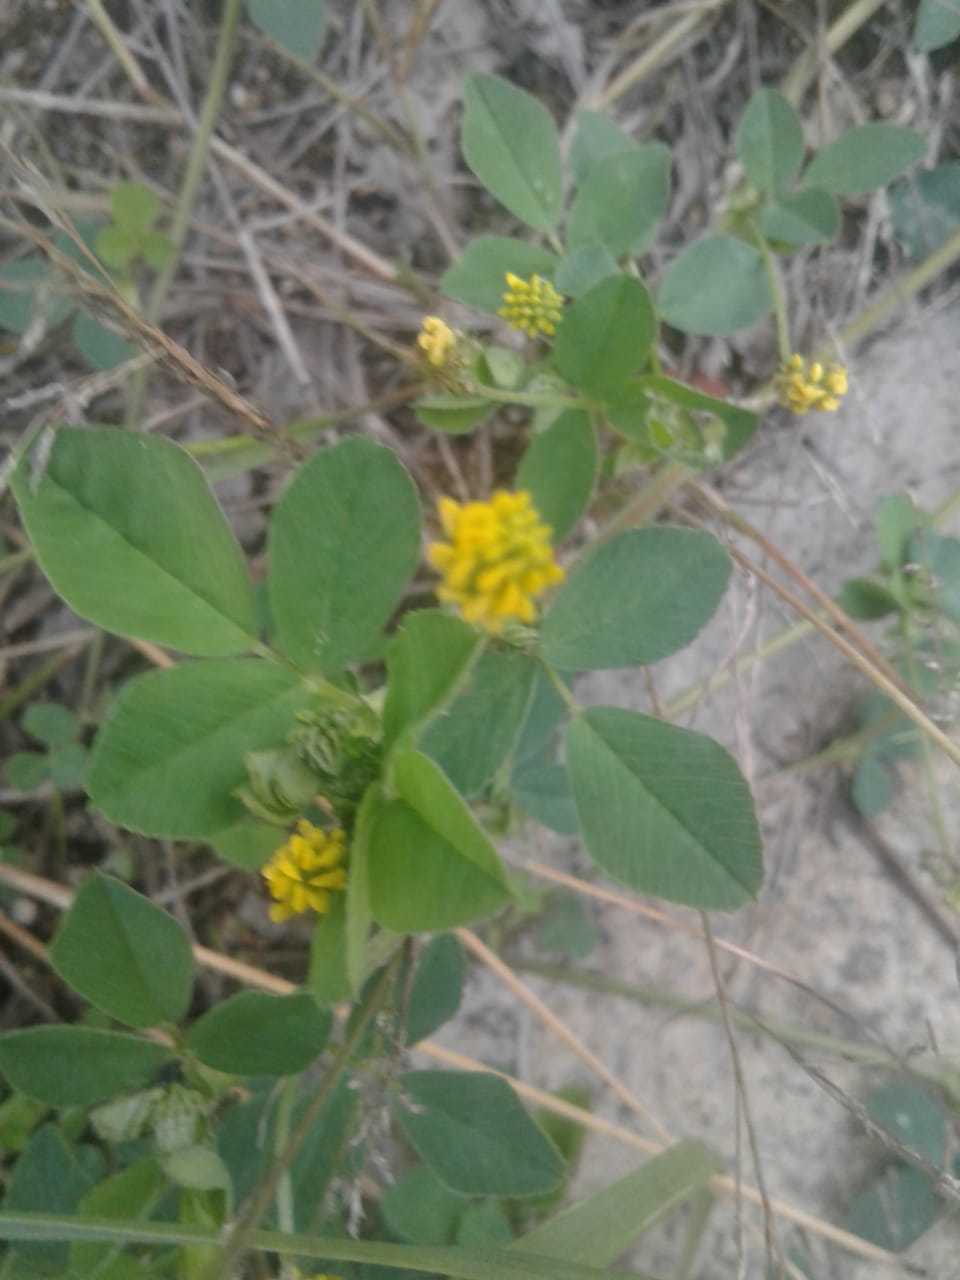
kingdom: Plantae
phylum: Tracheophyta
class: Magnoliopsida
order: Fabales
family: Fabaceae
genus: Medicago
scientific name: Medicago lupulina
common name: Black medick
